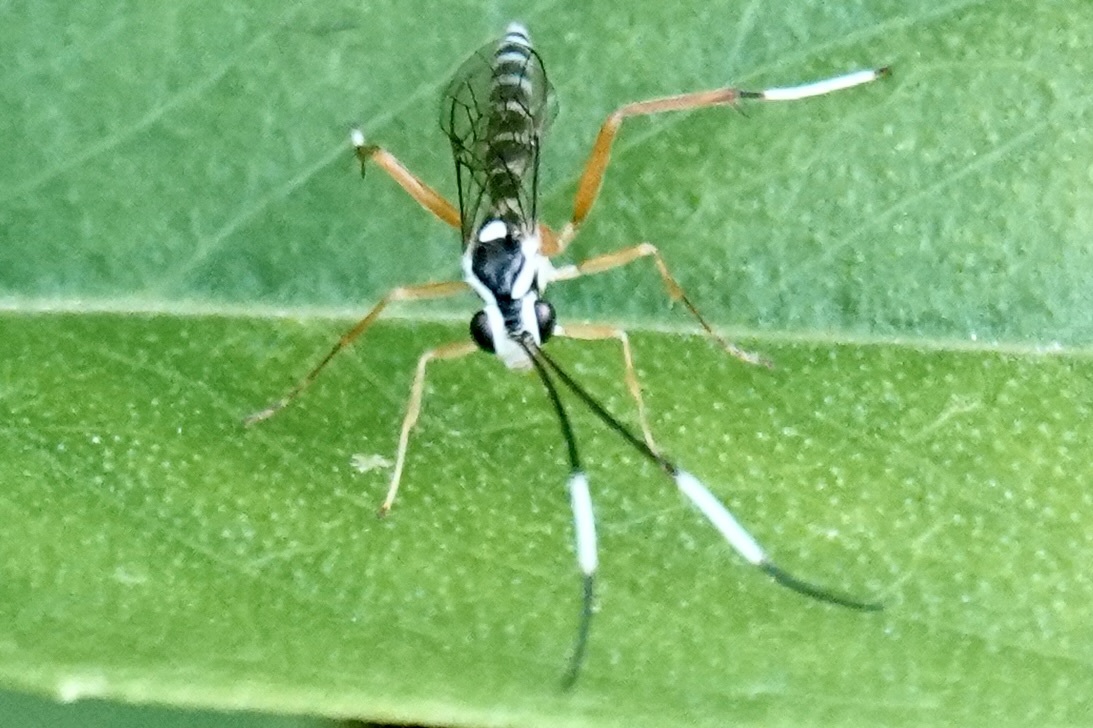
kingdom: Animalia
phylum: Arthropoda
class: Insecta
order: Hymenoptera
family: Ichneumonidae
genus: Sphelodon
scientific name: Sphelodon phoxopteridis
